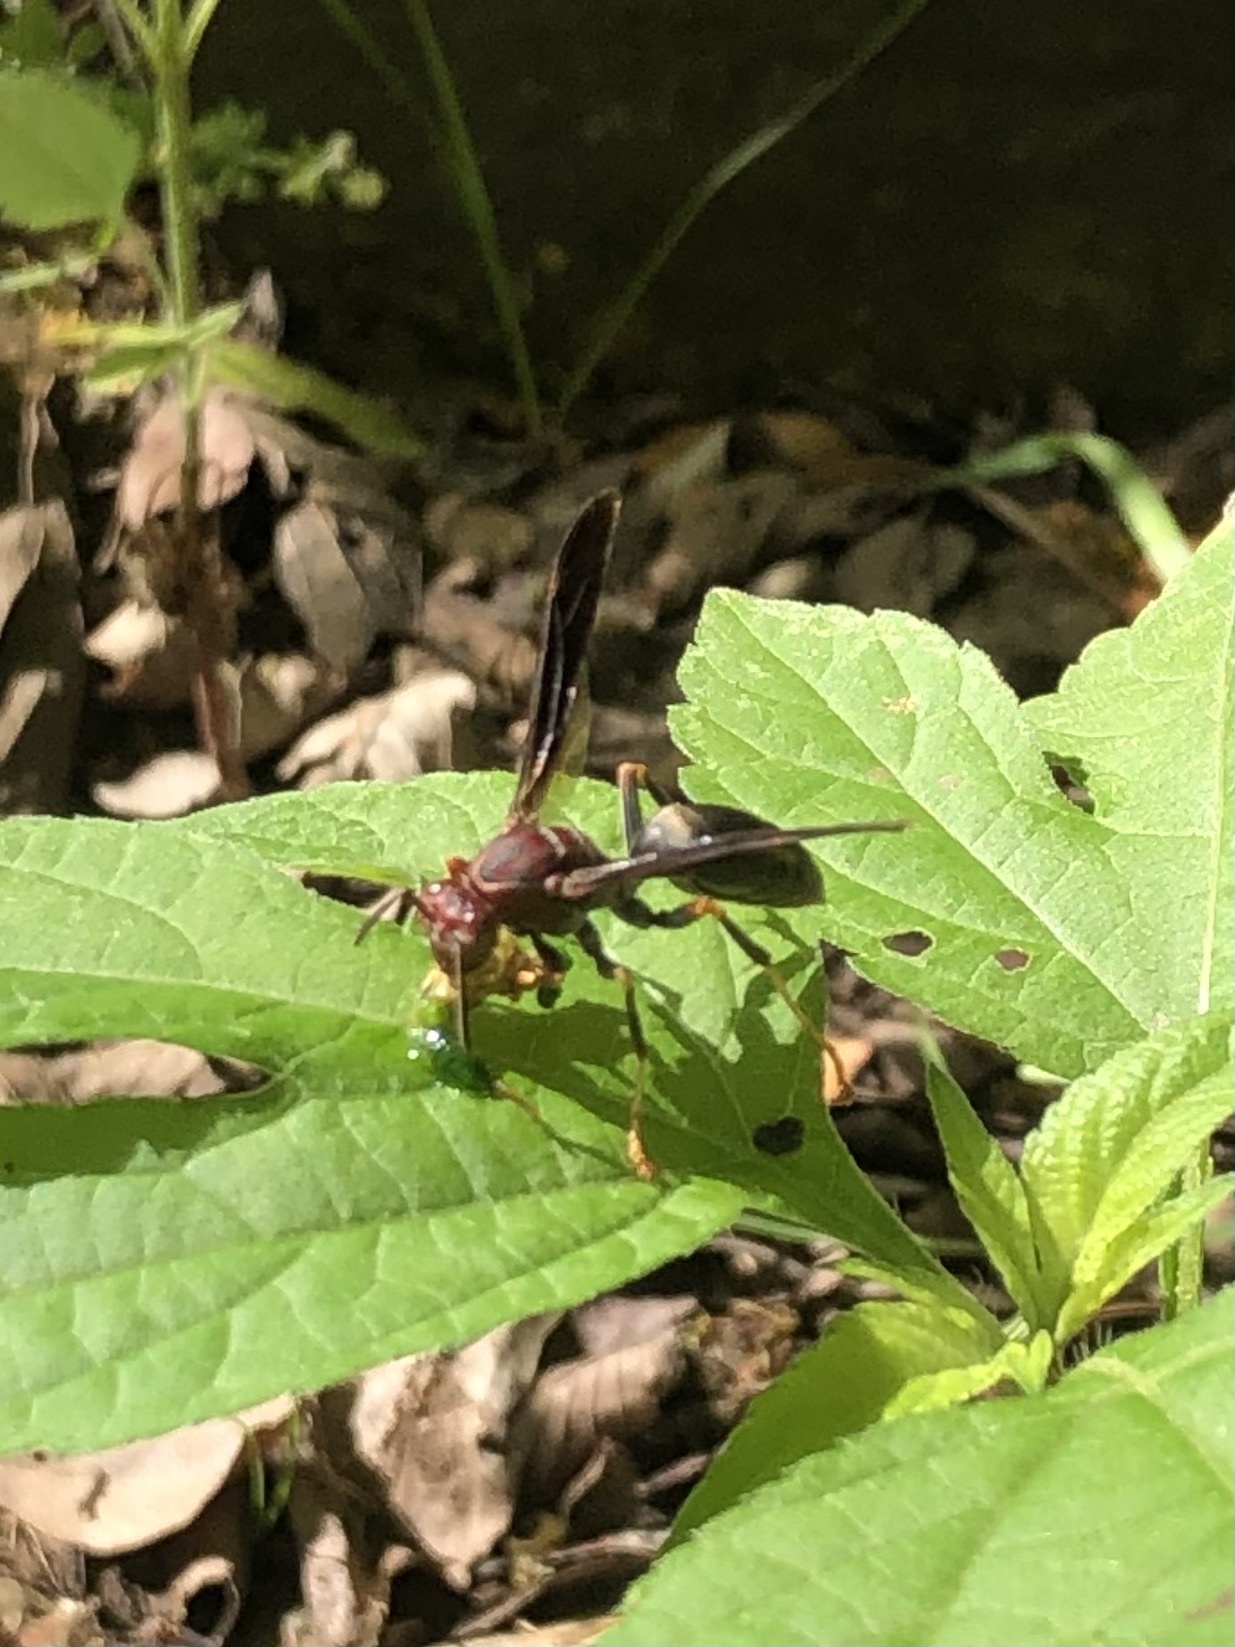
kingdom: Animalia
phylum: Arthropoda
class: Insecta
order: Hymenoptera
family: Eumenidae
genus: Polistes
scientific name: Polistes metricus
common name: Metric paper wasp
